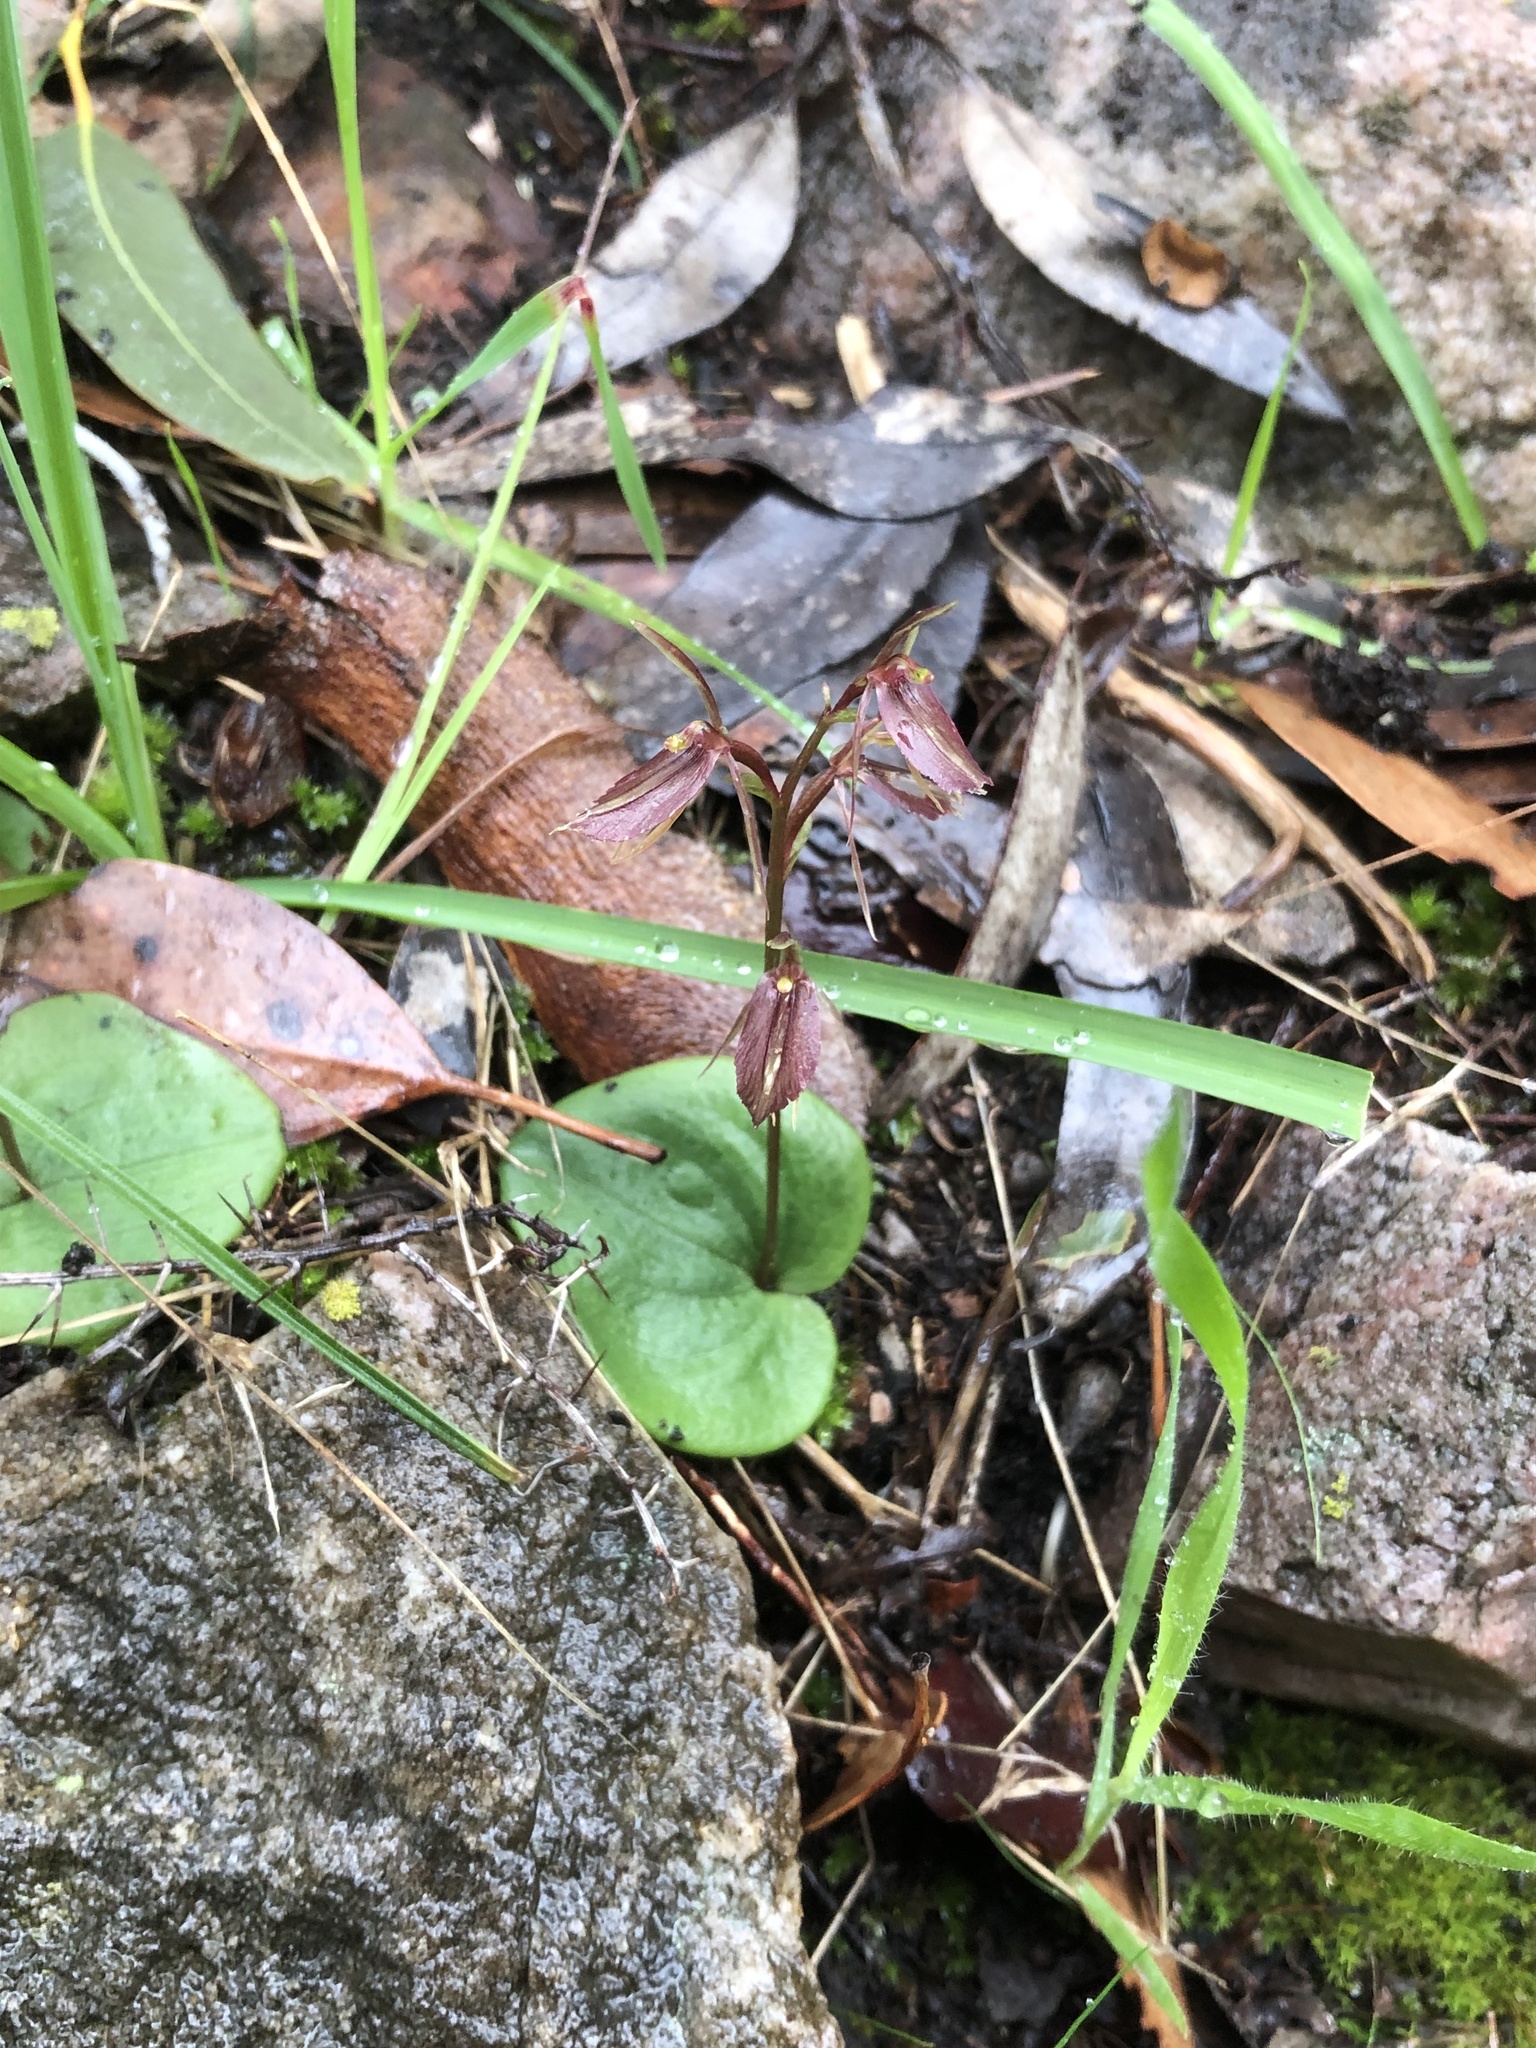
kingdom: Plantae
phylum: Tracheophyta
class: Liliopsida
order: Asparagales
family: Orchidaceae
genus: Cyrtostylis
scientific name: Cyrtostylis reniformis
